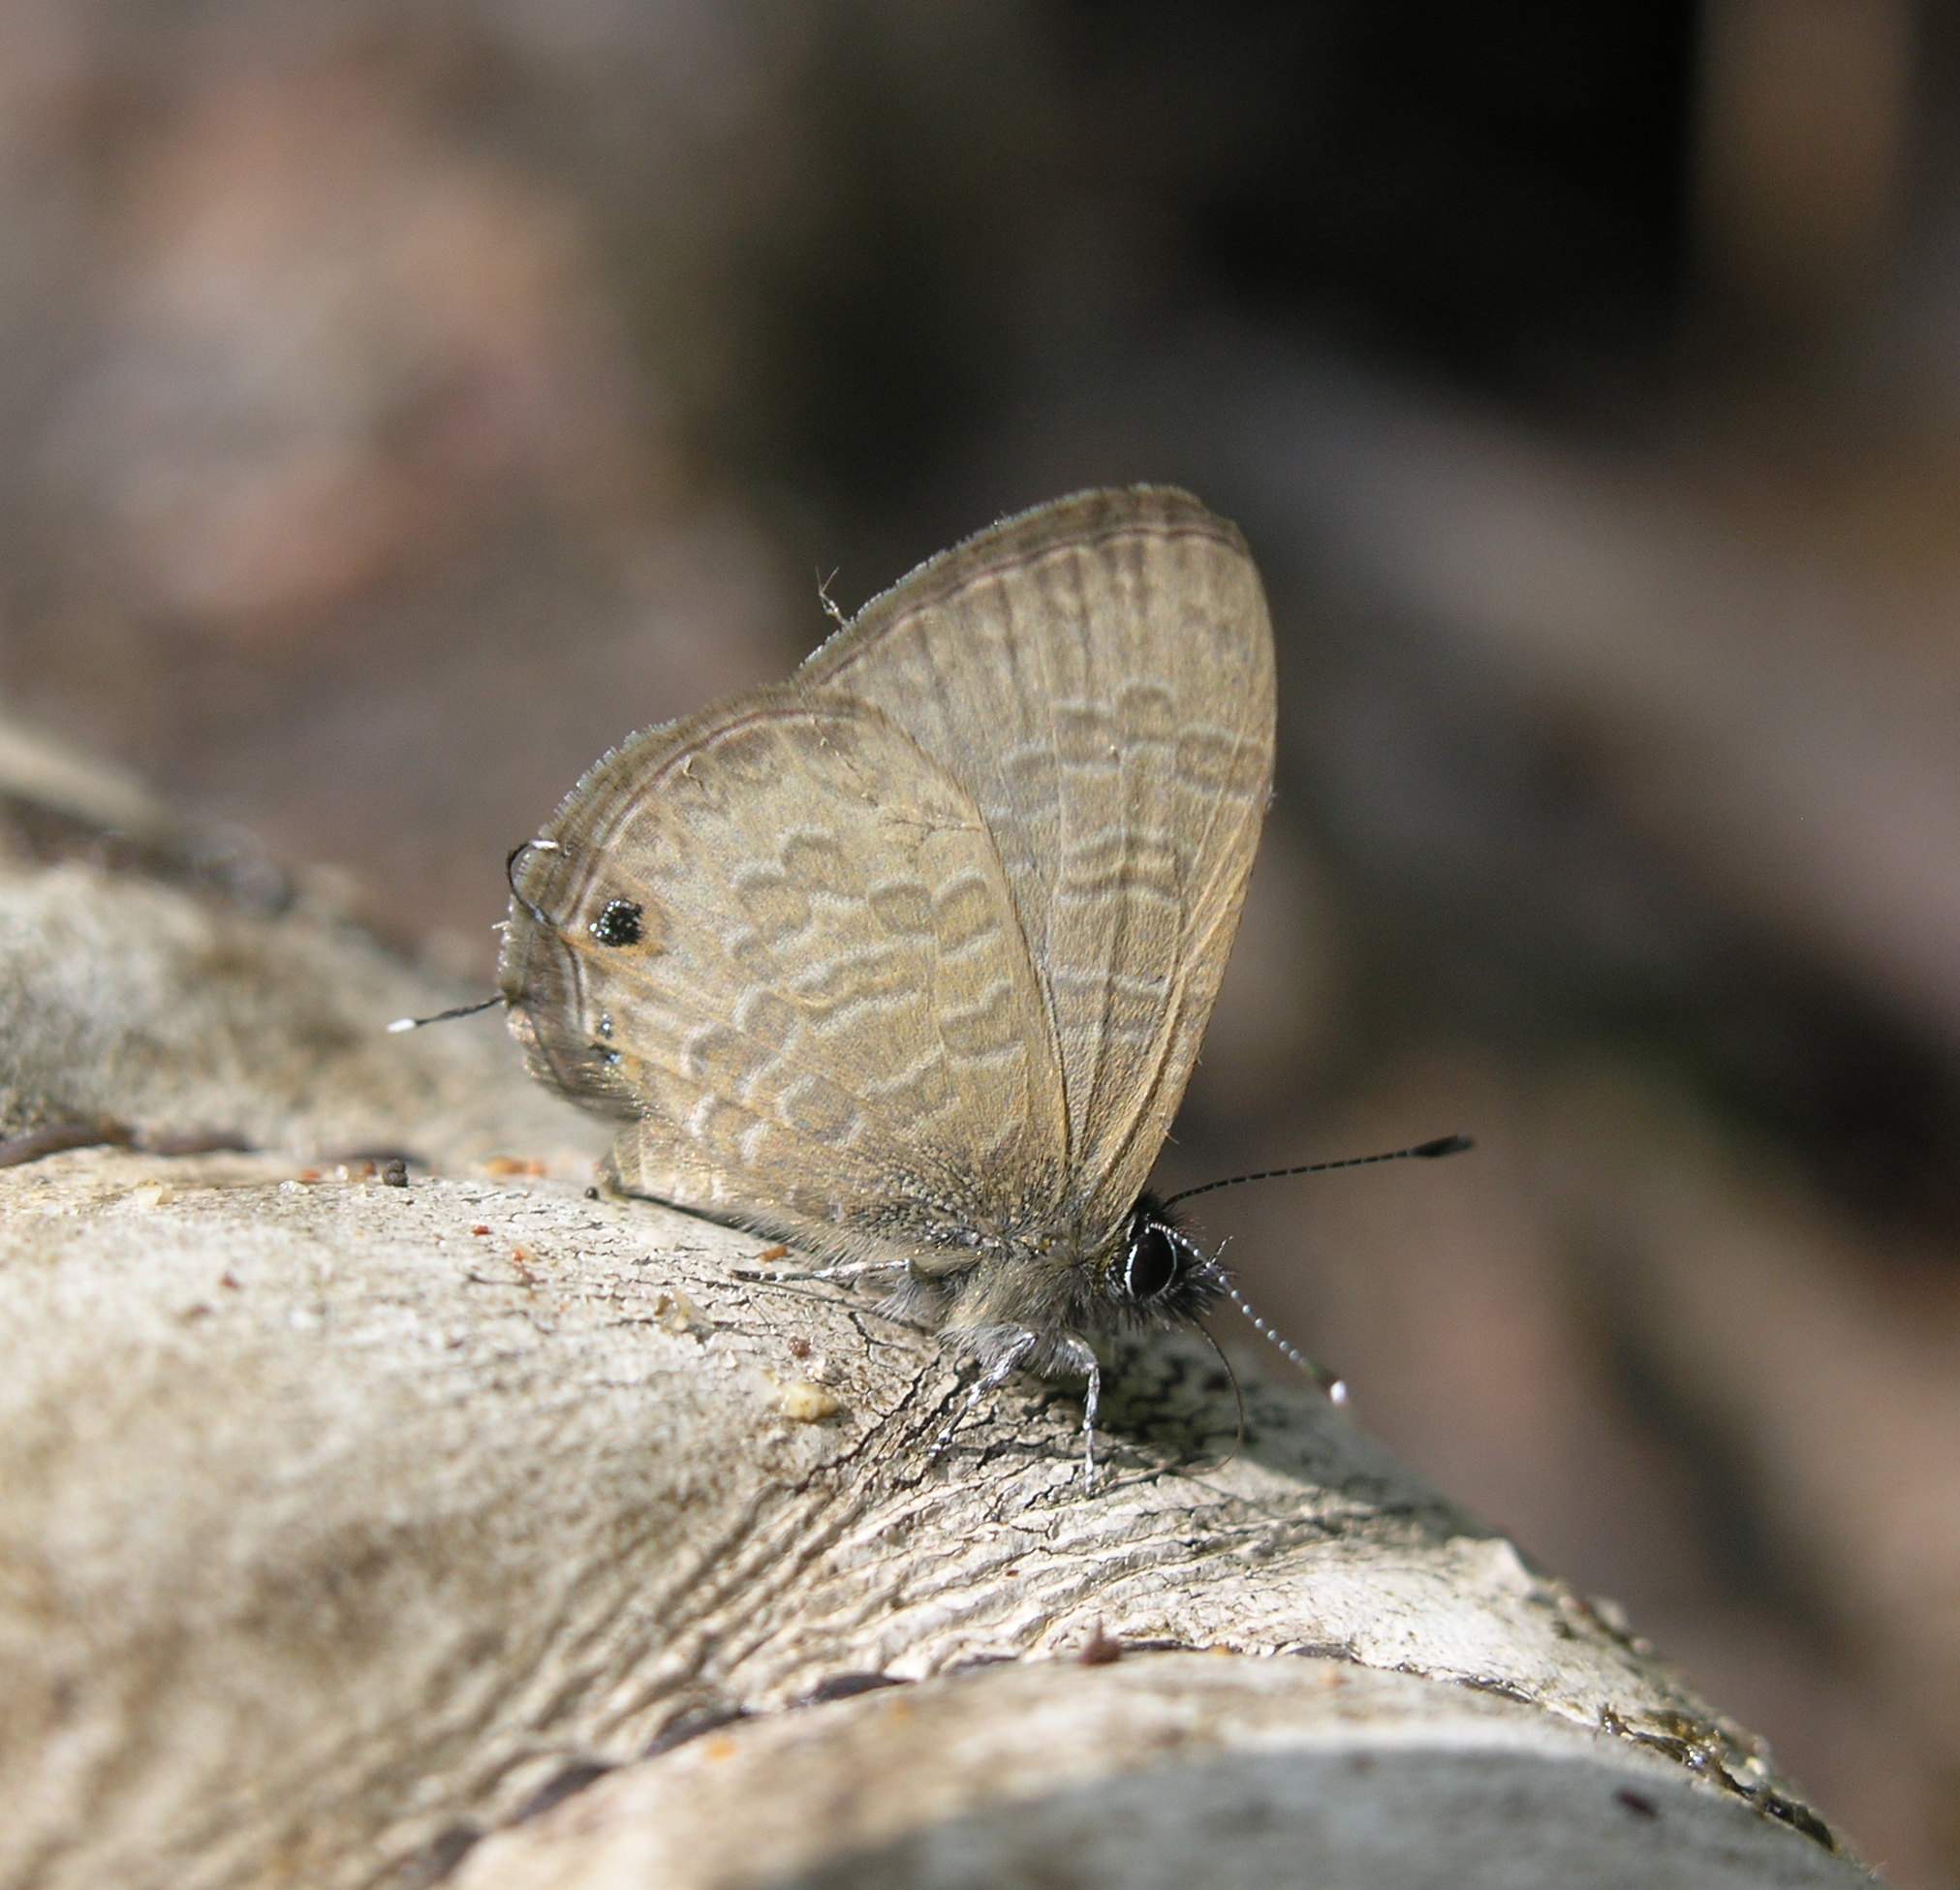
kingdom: Animalia
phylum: Arthropoda
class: Insecta
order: Lepidoptera
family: Lycaenidae
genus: Prosotas
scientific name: Prosotas nora
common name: Common line blue
